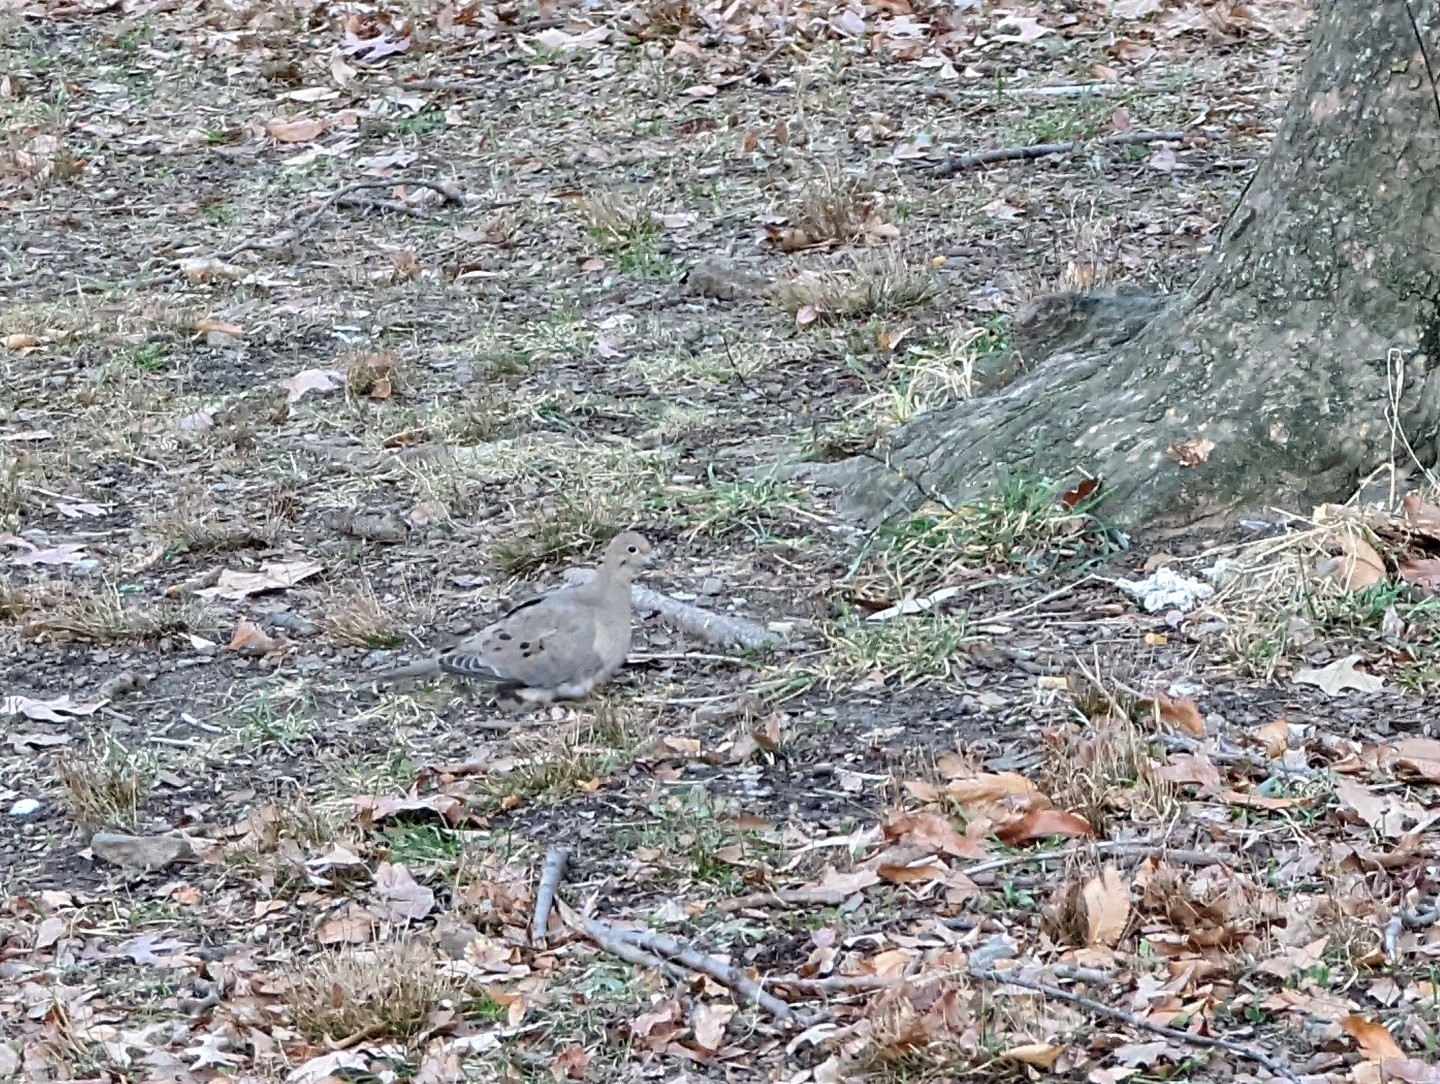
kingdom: Animalia
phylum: Chordata
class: Aves
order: Columbiformes
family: Columbidae
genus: Zenaida
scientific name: Zenaida macroura
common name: Mourning dove
